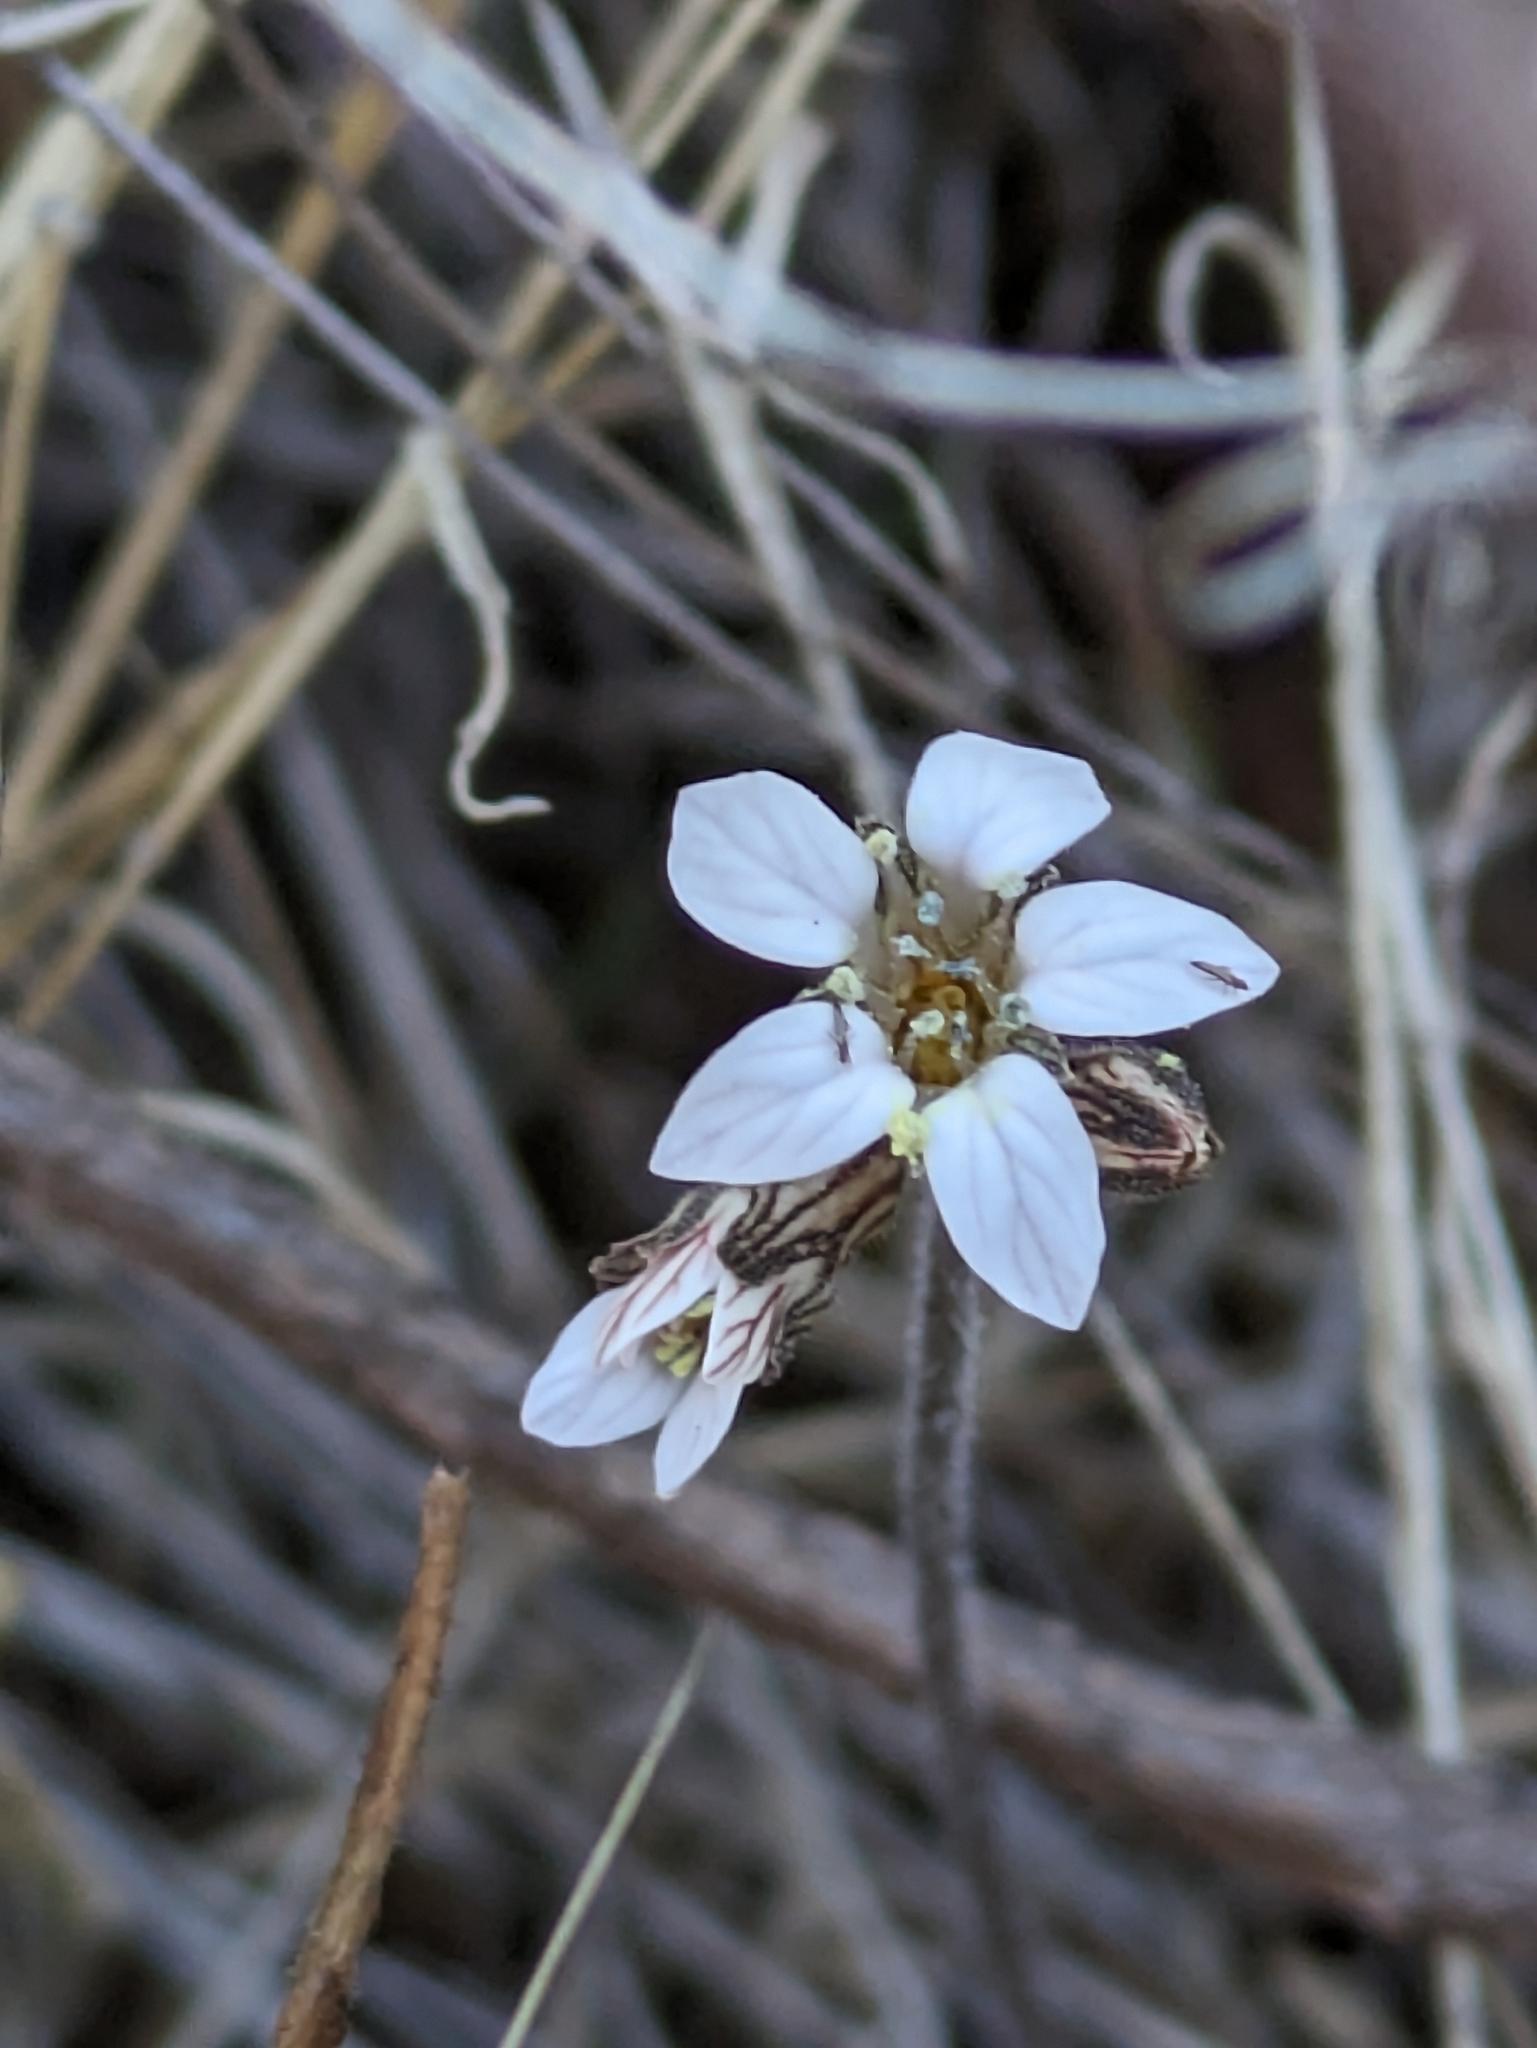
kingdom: Plantae
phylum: Tracheophyta
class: Magnoliopsida
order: Saxifragales
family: Saxifragaceae
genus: Jepsonia
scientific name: Jepsonia parryi
